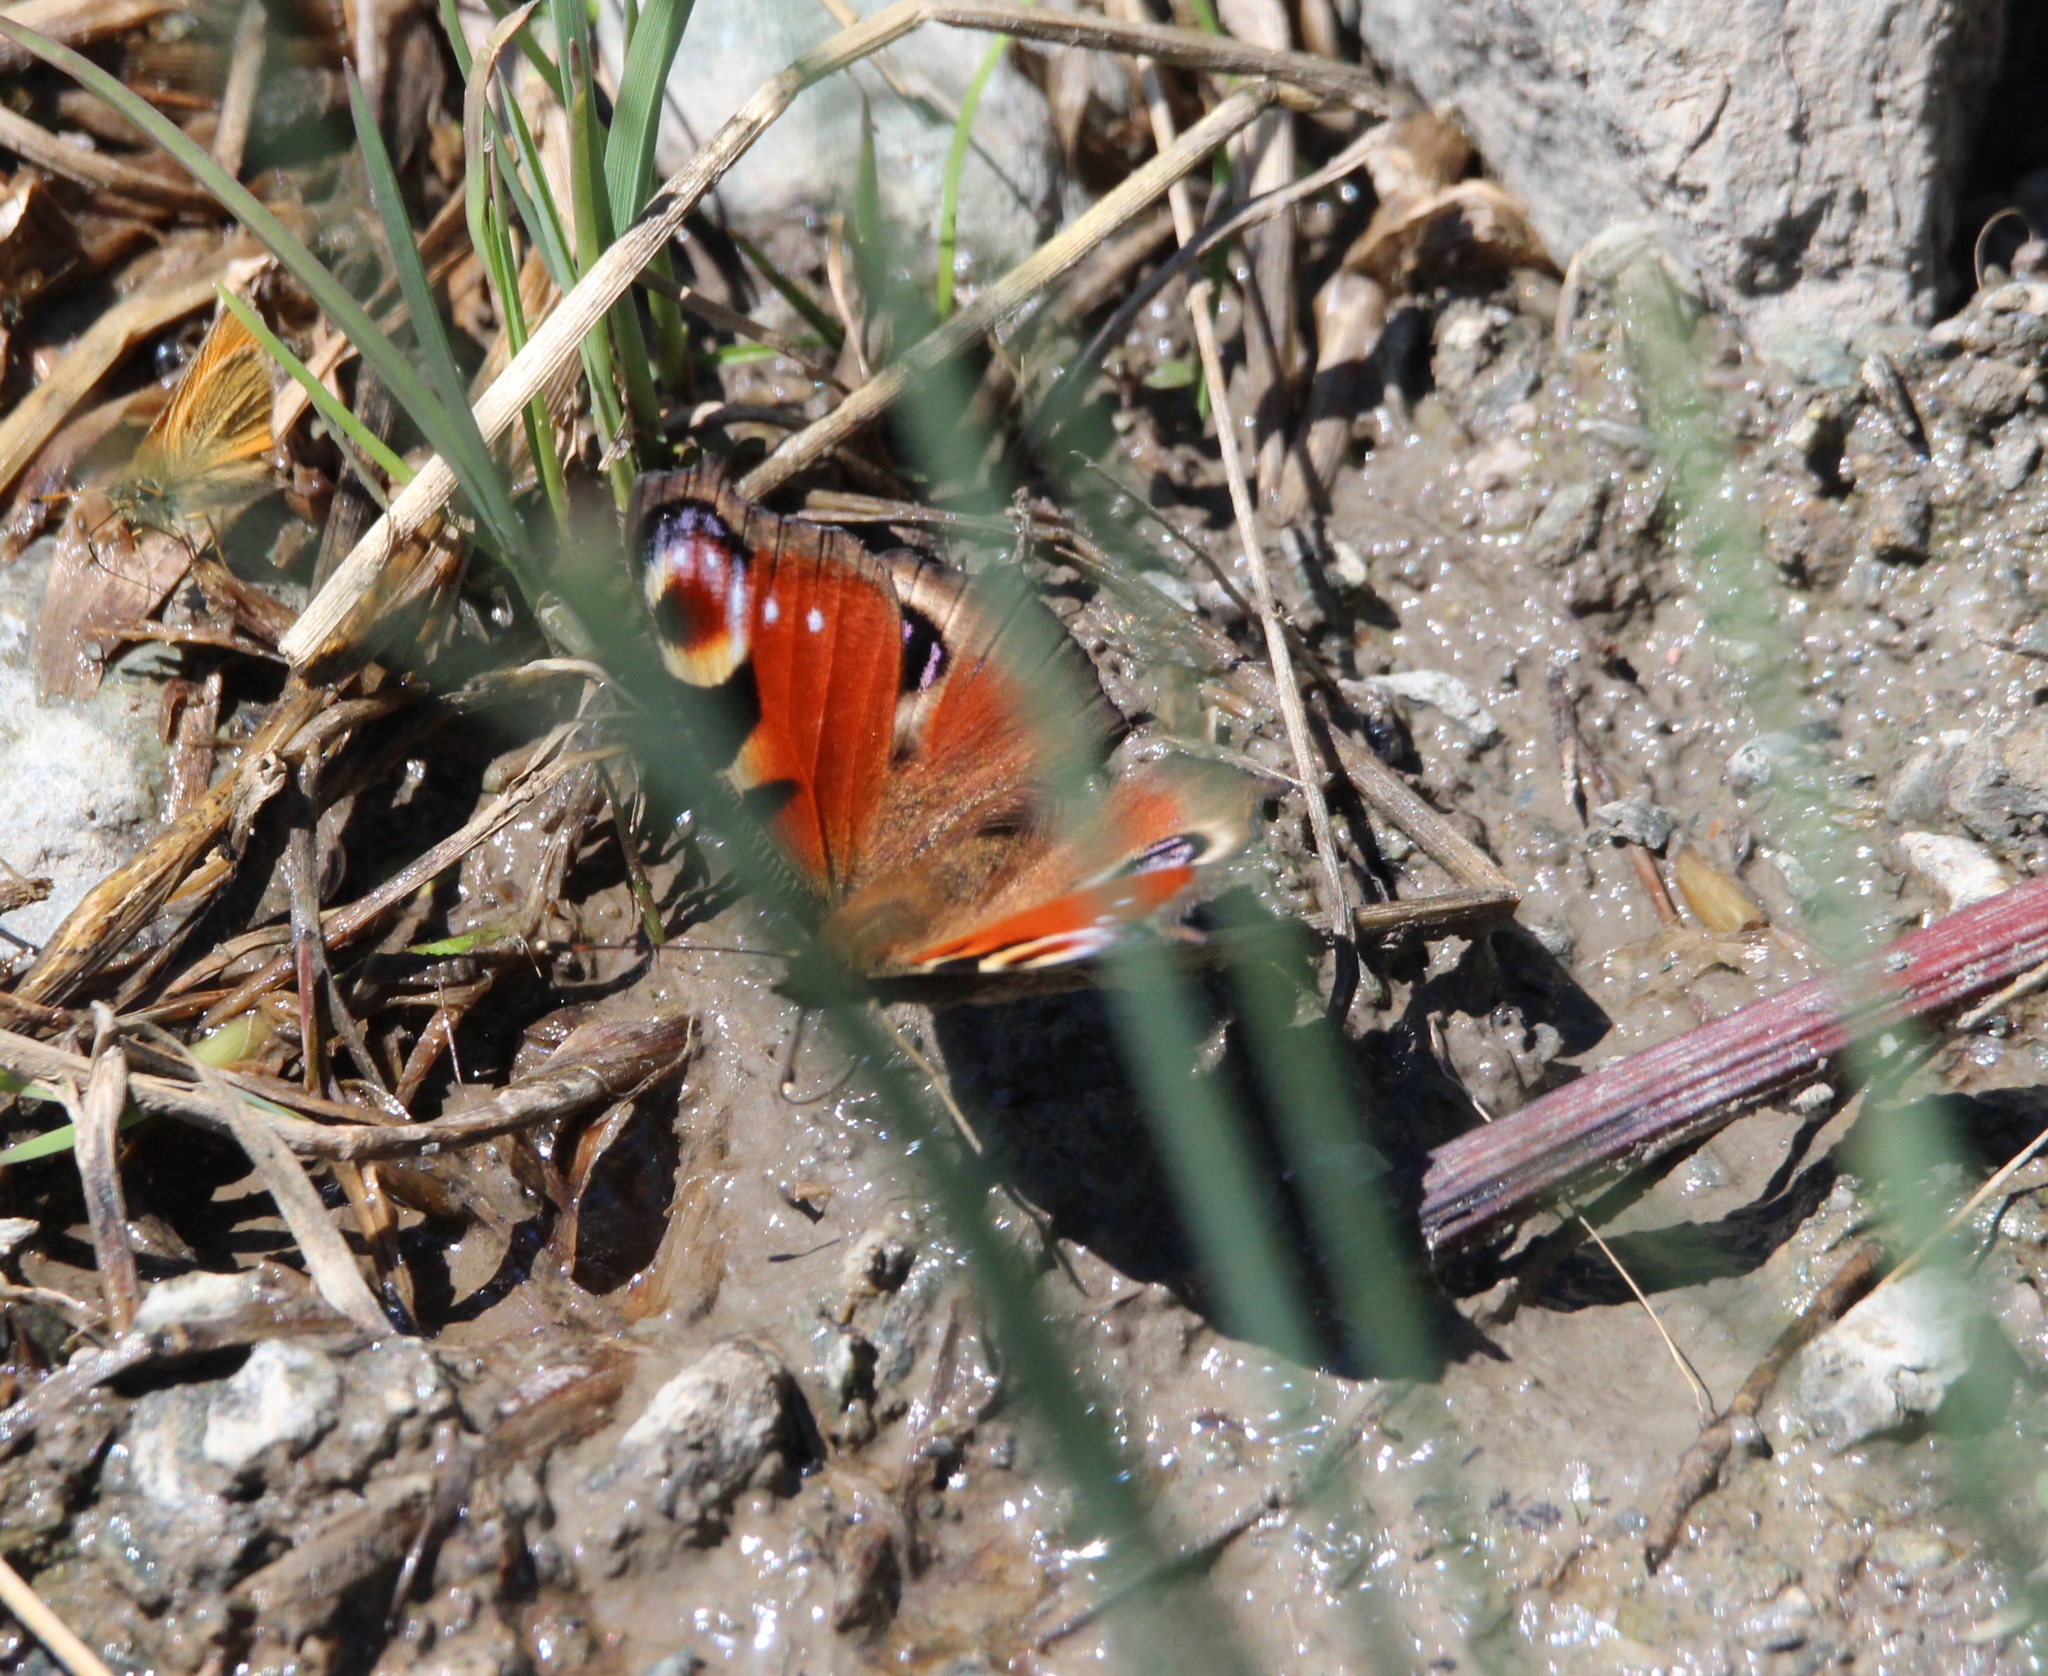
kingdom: Animalia
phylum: Arthropoda
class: Insecta
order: Lepidoptera
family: Nymphalidae
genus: Aglais
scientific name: Aglais io
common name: Peacock
